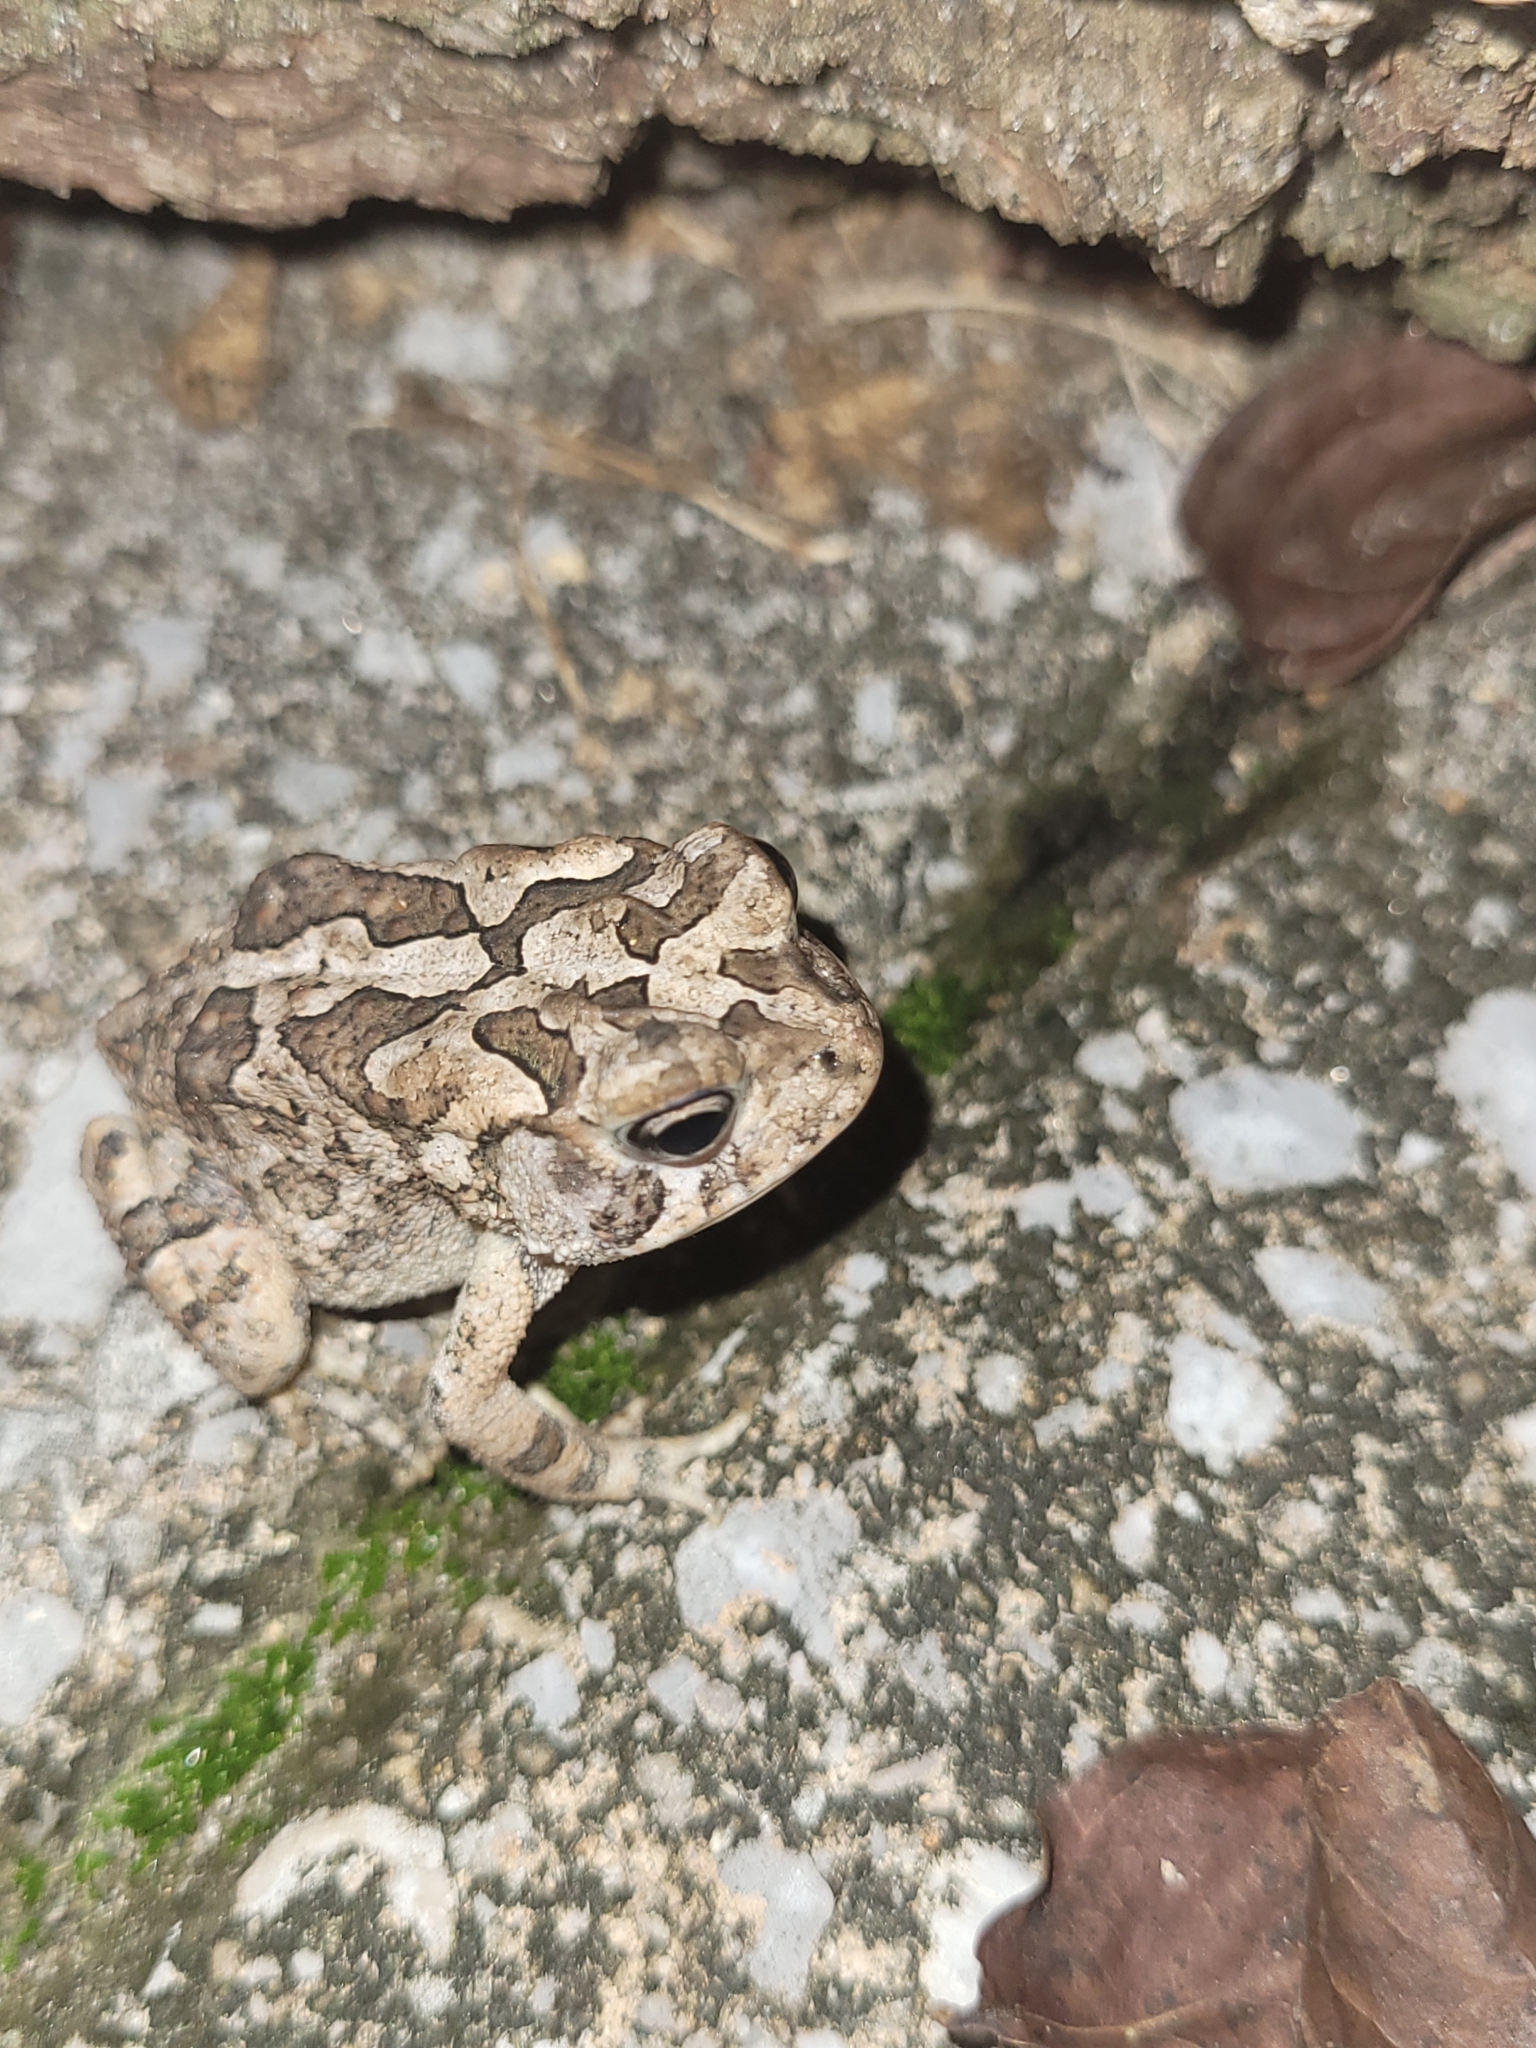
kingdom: Animalia
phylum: Chordata
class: Amphibia
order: Anura
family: Bufonidae
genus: Anaxyrus
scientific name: Anaxyrus terrestris
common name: Southern toad
